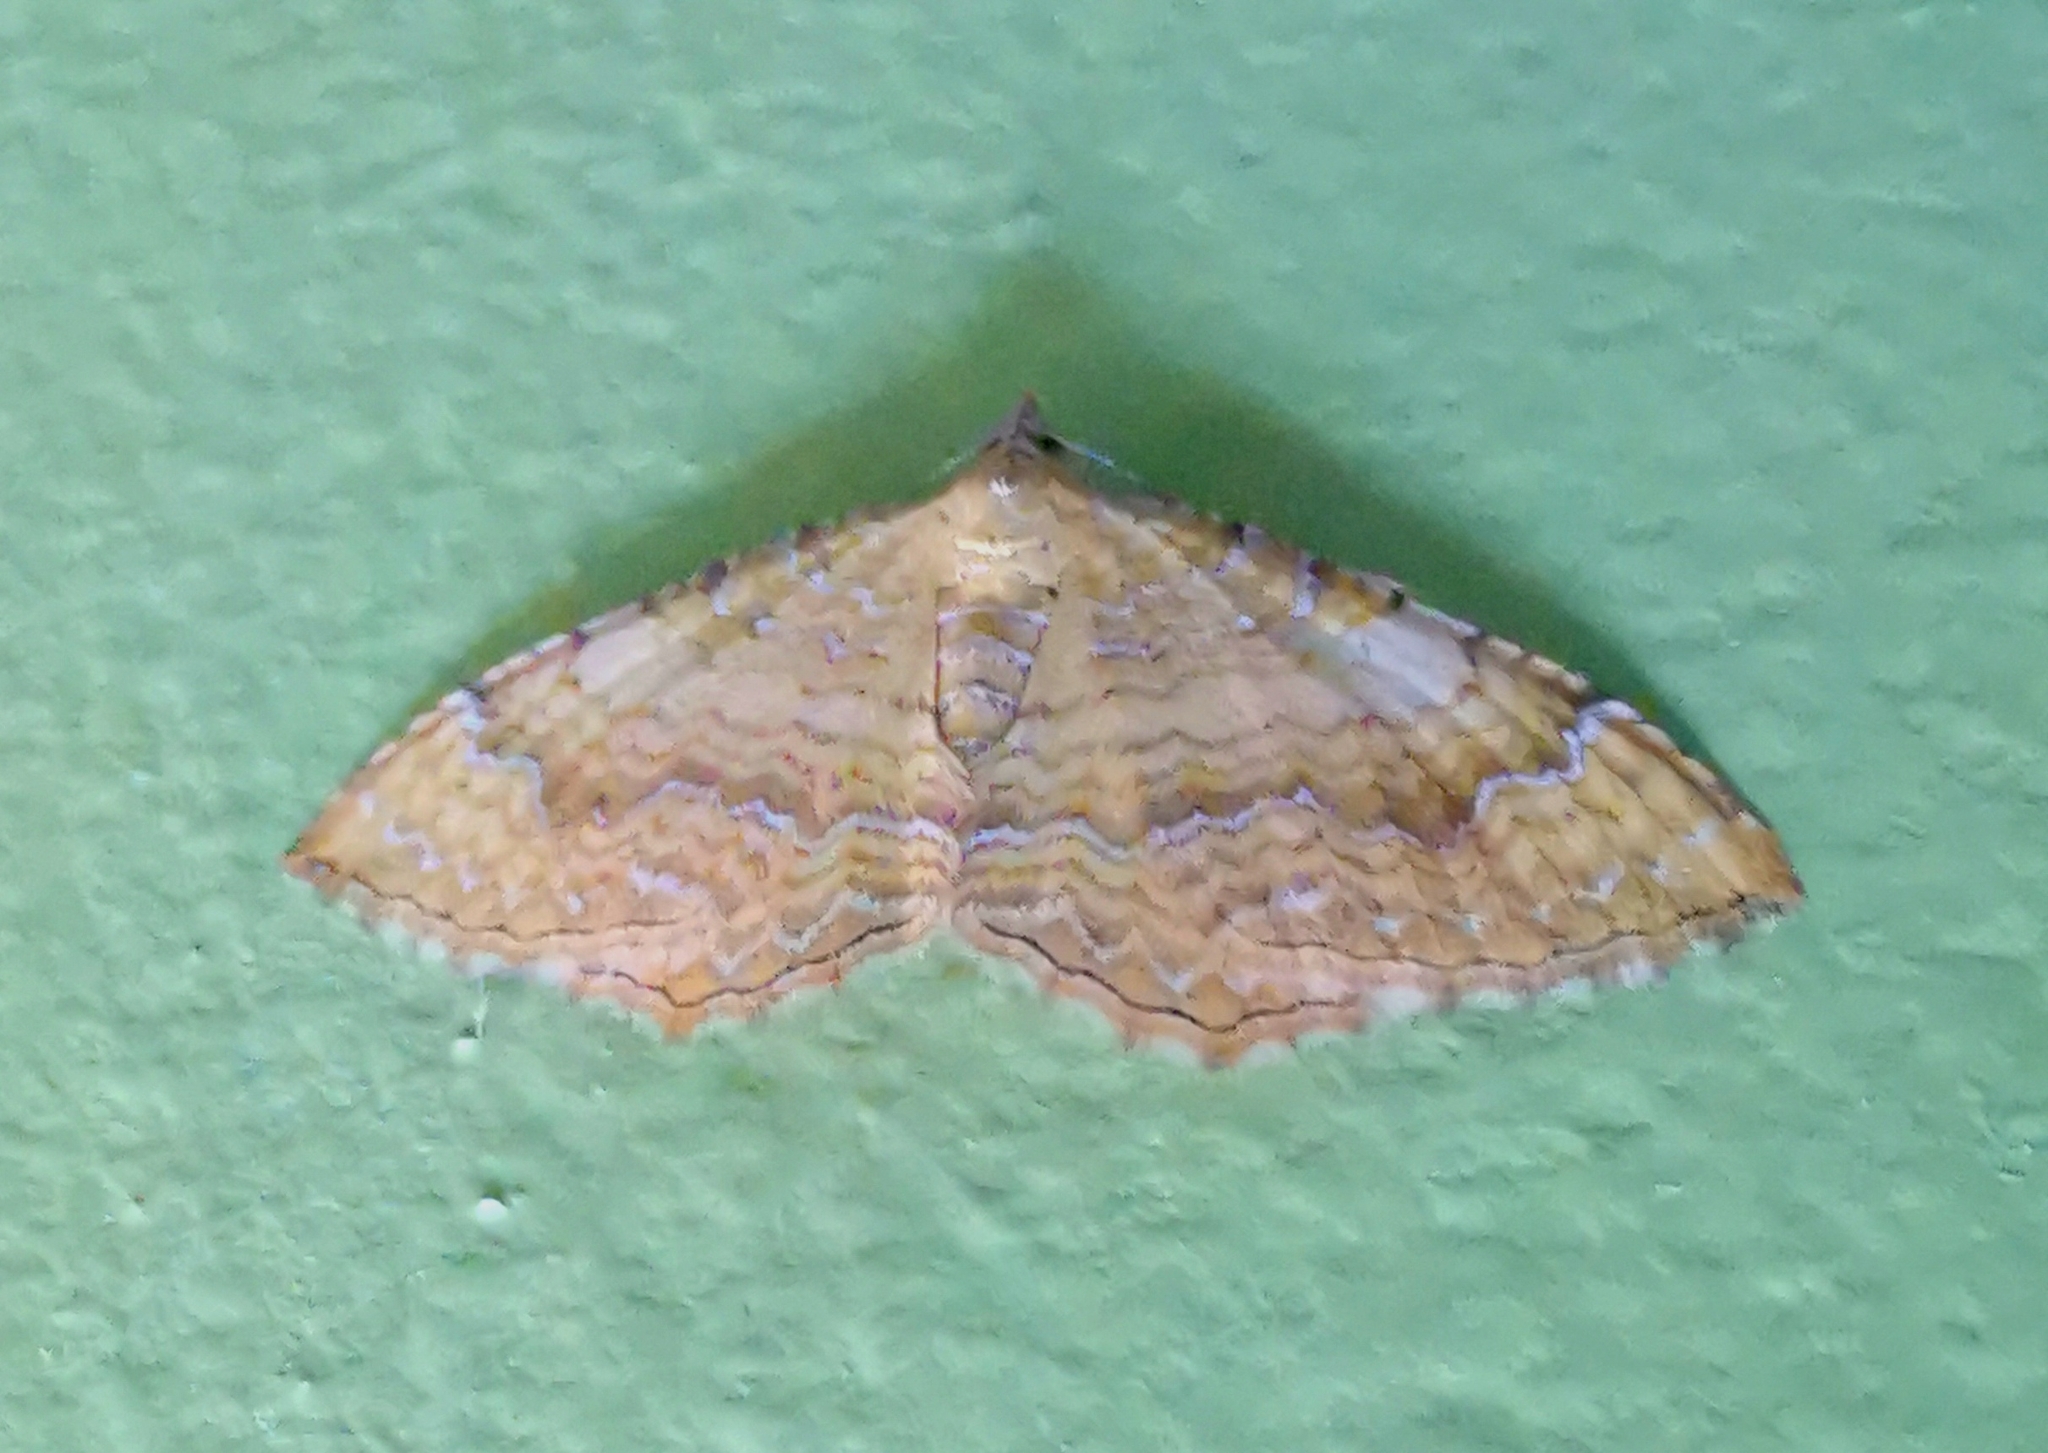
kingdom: Animalia
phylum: Arthropoda
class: Insecta
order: Lepidoptera
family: Geometridae
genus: Camptogramma
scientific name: Camptogramma bilineata
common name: Yellow shell
